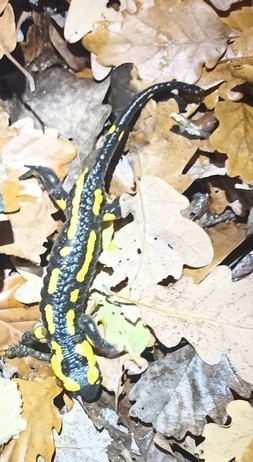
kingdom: Animalia
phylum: Chordata
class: Amphibia
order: Caudata
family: Salamandridae
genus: Salamandra
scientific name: Salamandra salamandra
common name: Fire salamander
